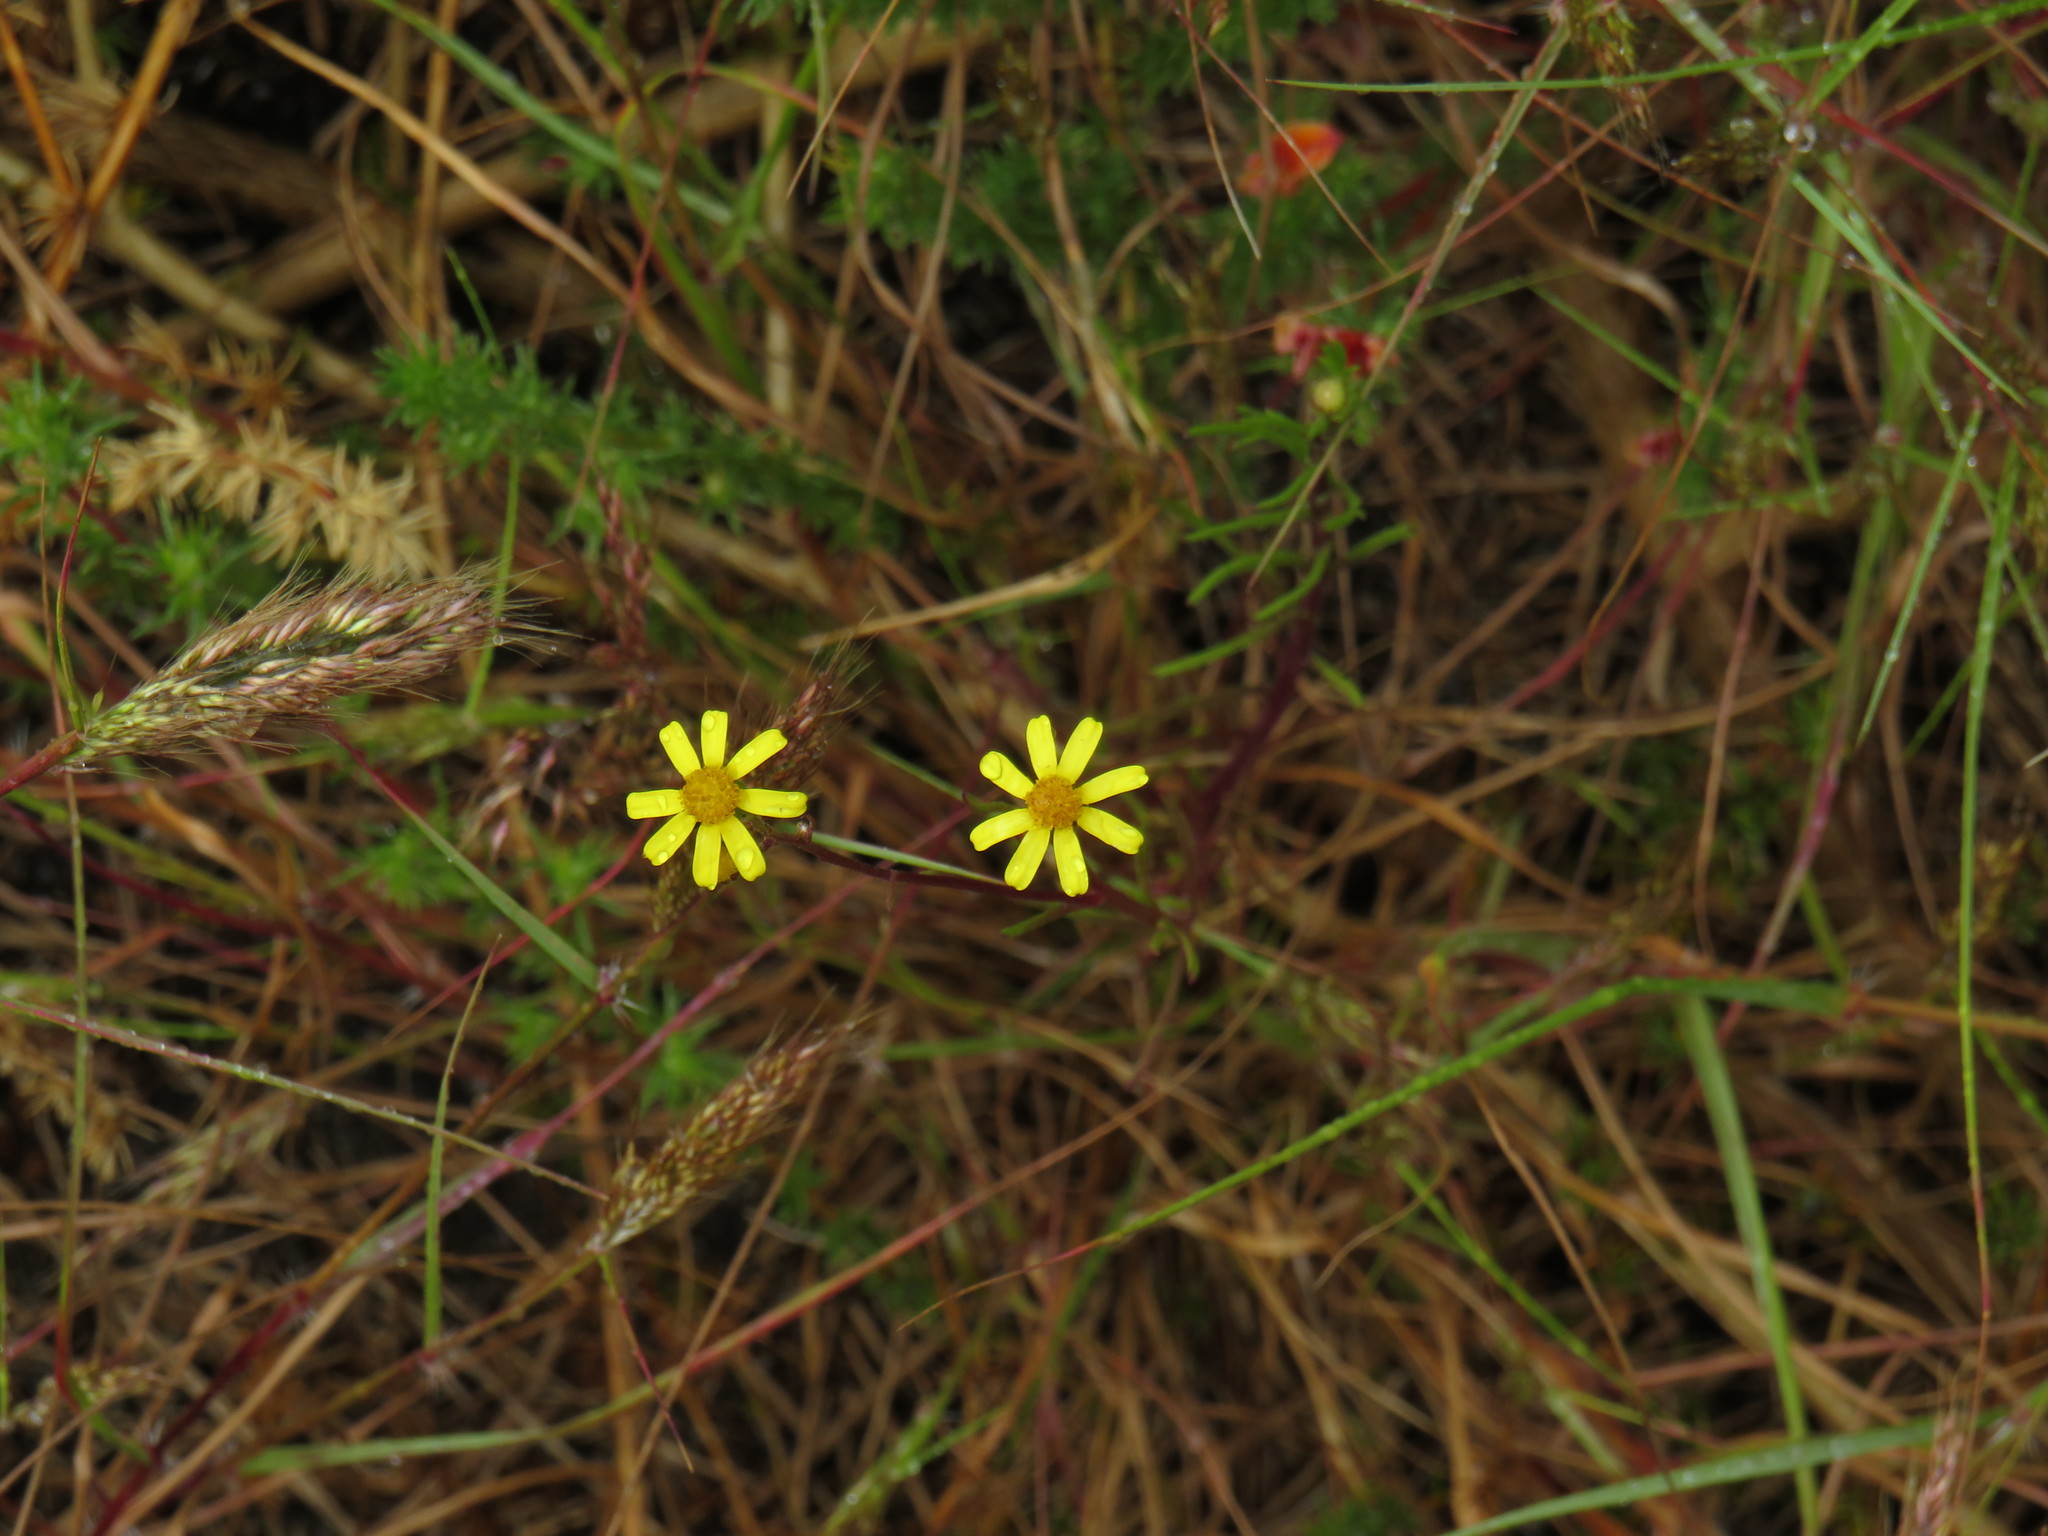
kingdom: Plantae
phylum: Tracheophyta
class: Magnoliopsida
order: Asterales
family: Asteraceae
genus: Senecio
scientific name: Senecio burchellii
